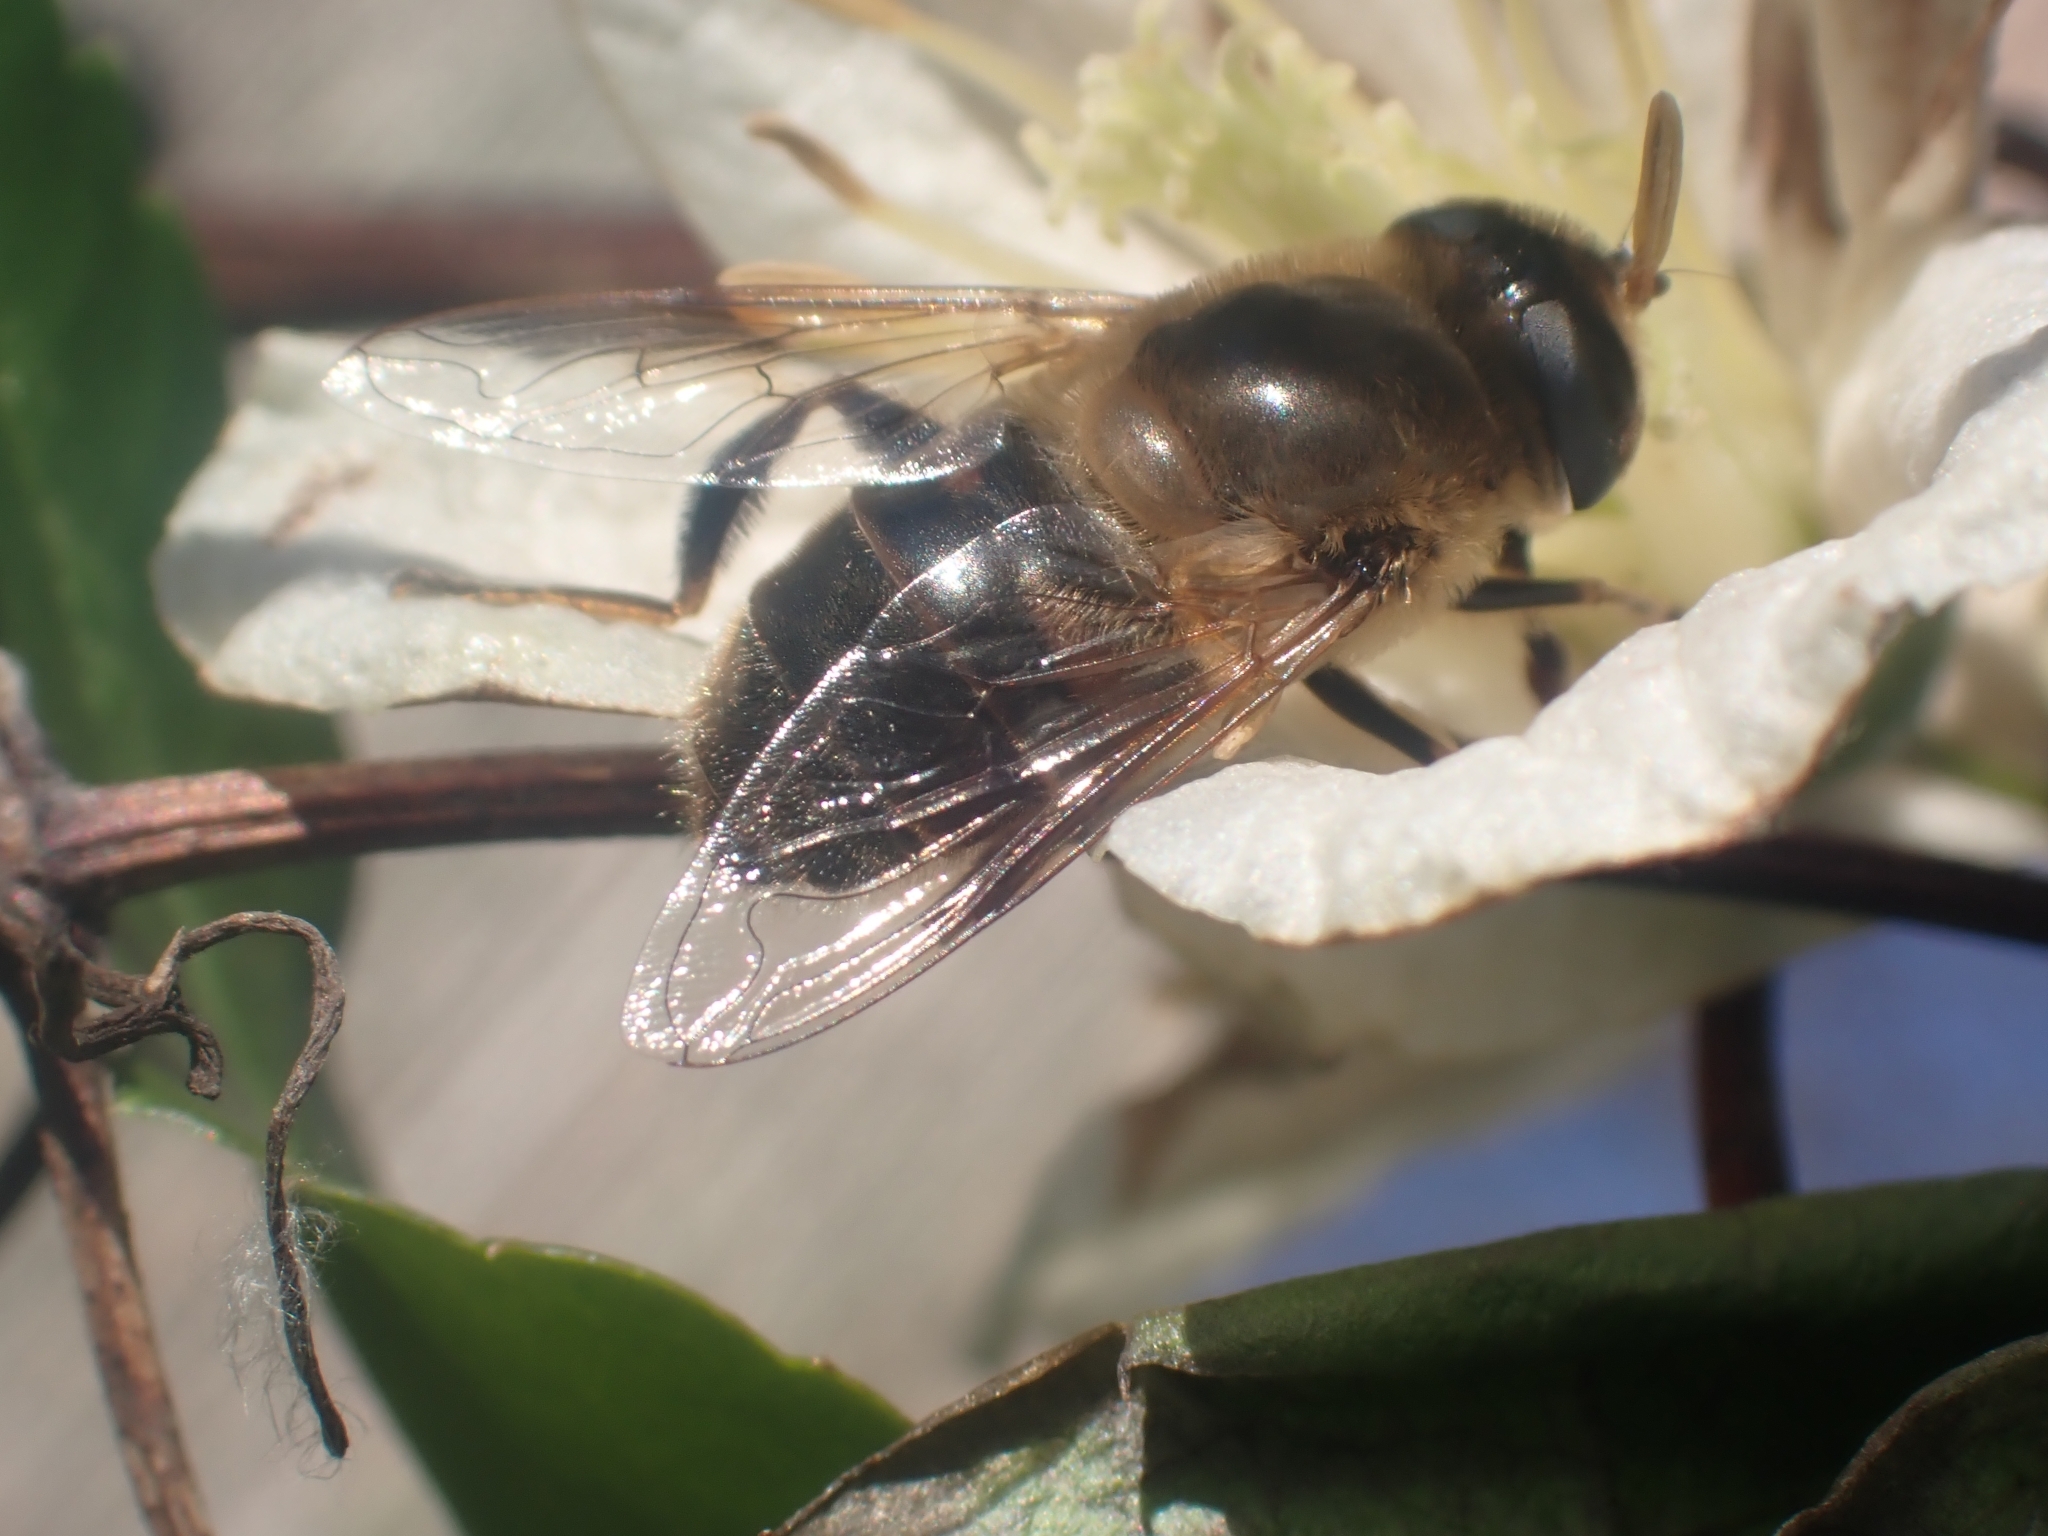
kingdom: Animalia
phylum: Arthropoda
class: Insecta
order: Diptera
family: Syrphidae
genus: Eristalis
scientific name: Eristalis tenax
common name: Drone fly
